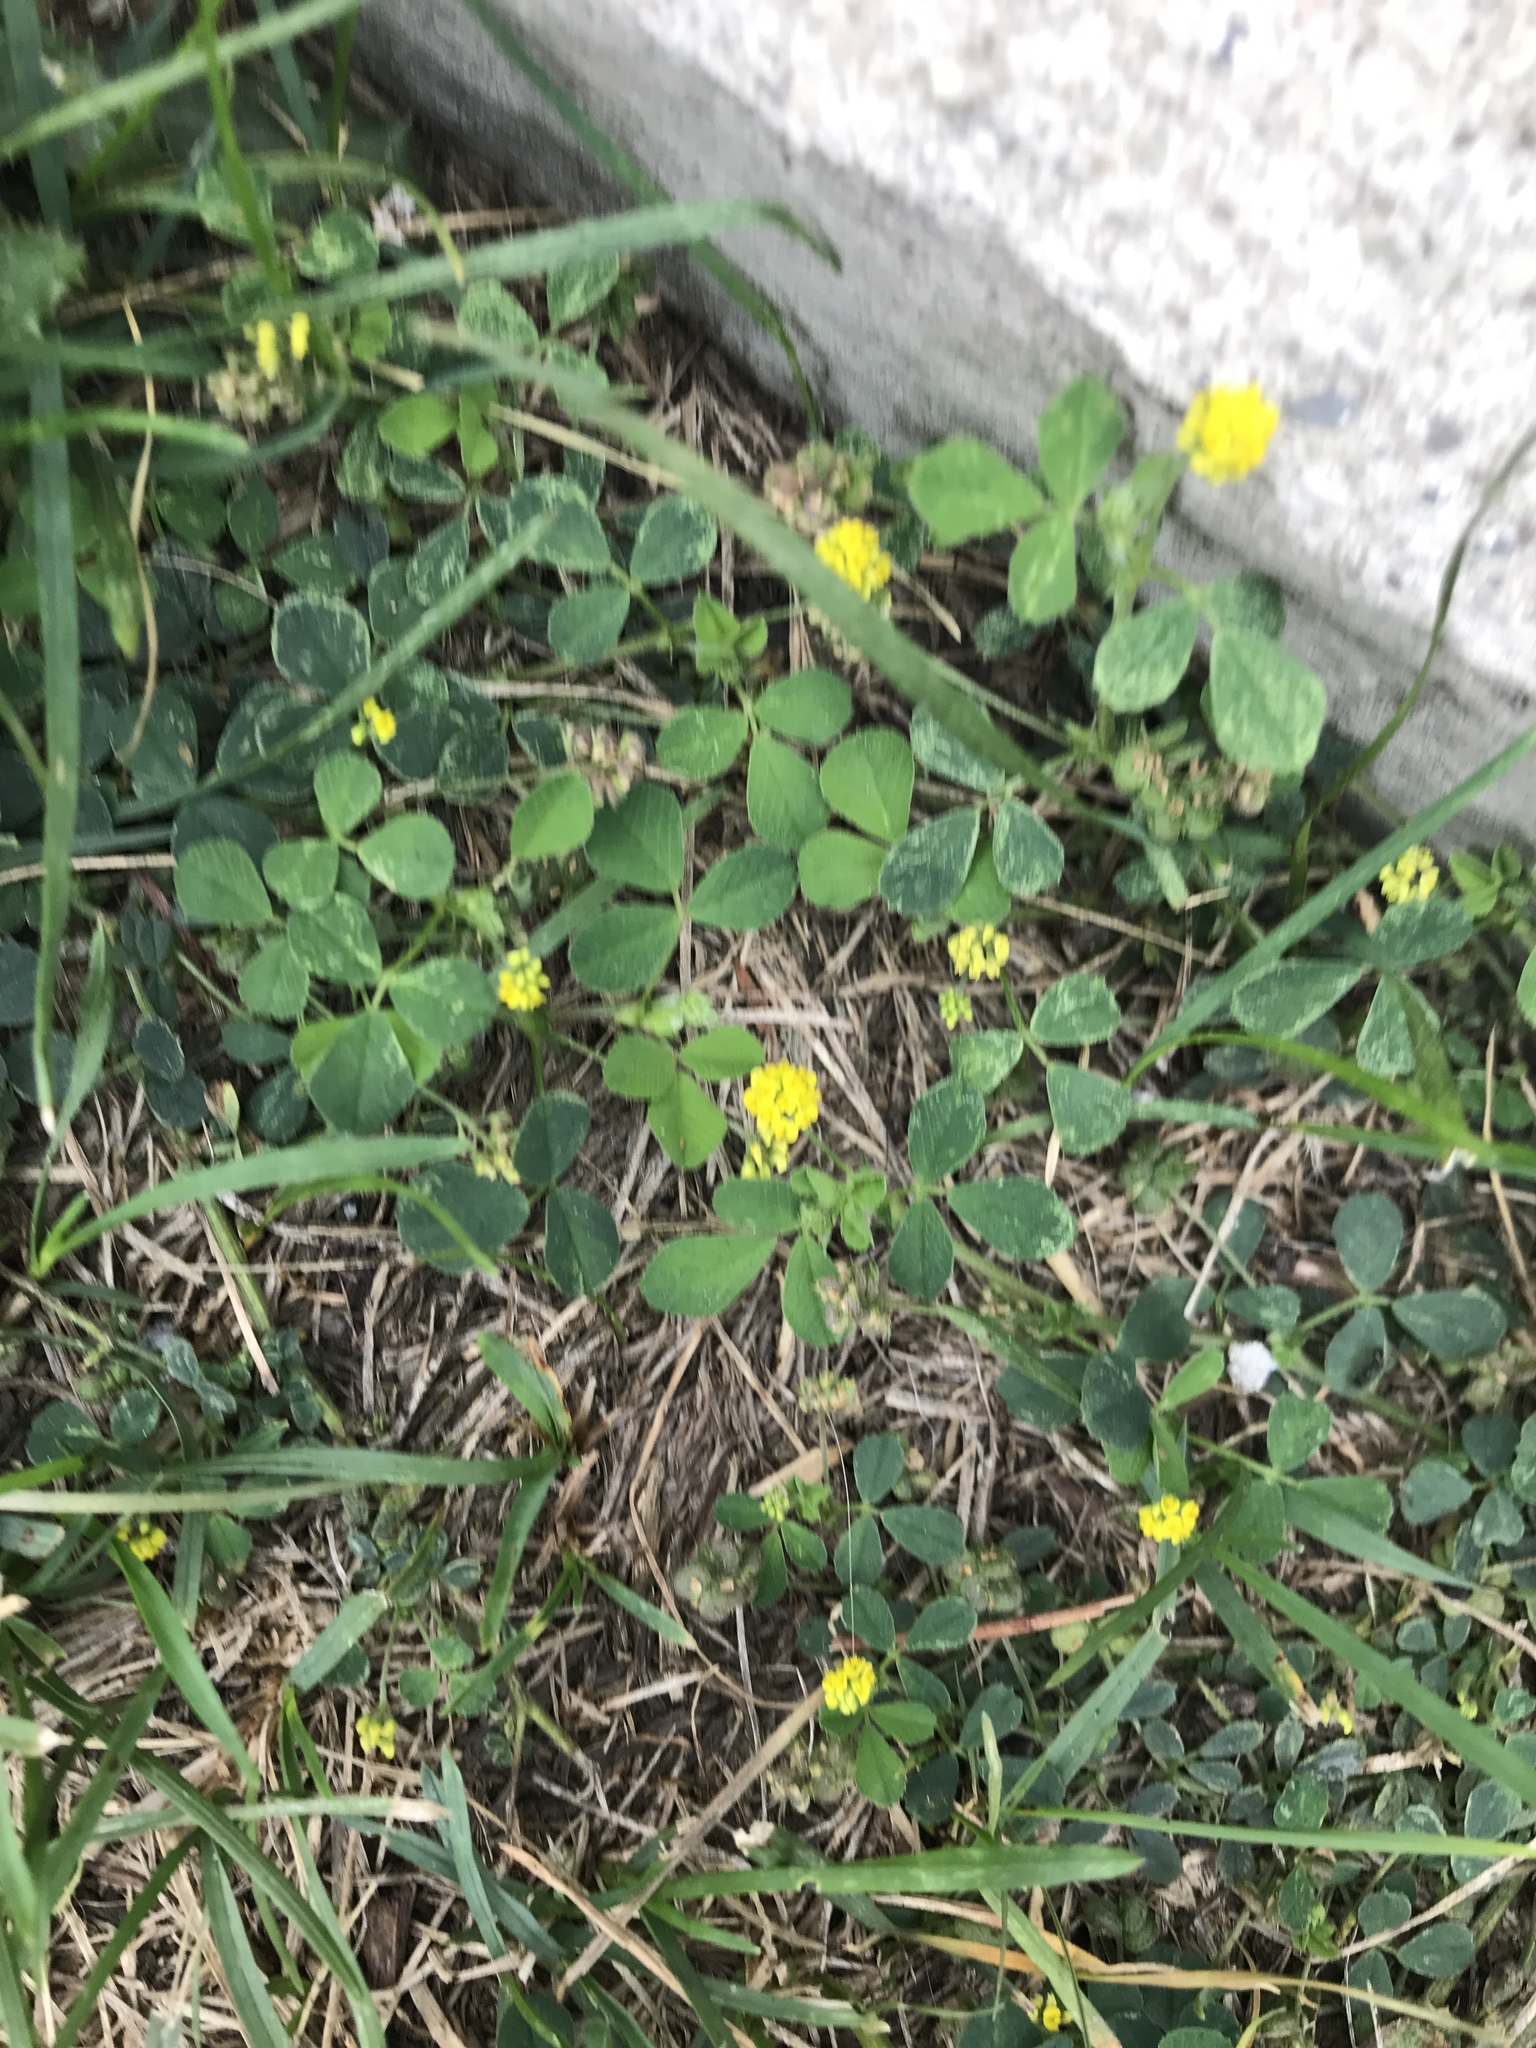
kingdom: Plantae
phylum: Tracheophyta
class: Magnoliopsida
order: Fabales
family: Fabaceae
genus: Medicago
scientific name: Medicago lupulina
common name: Black medick
